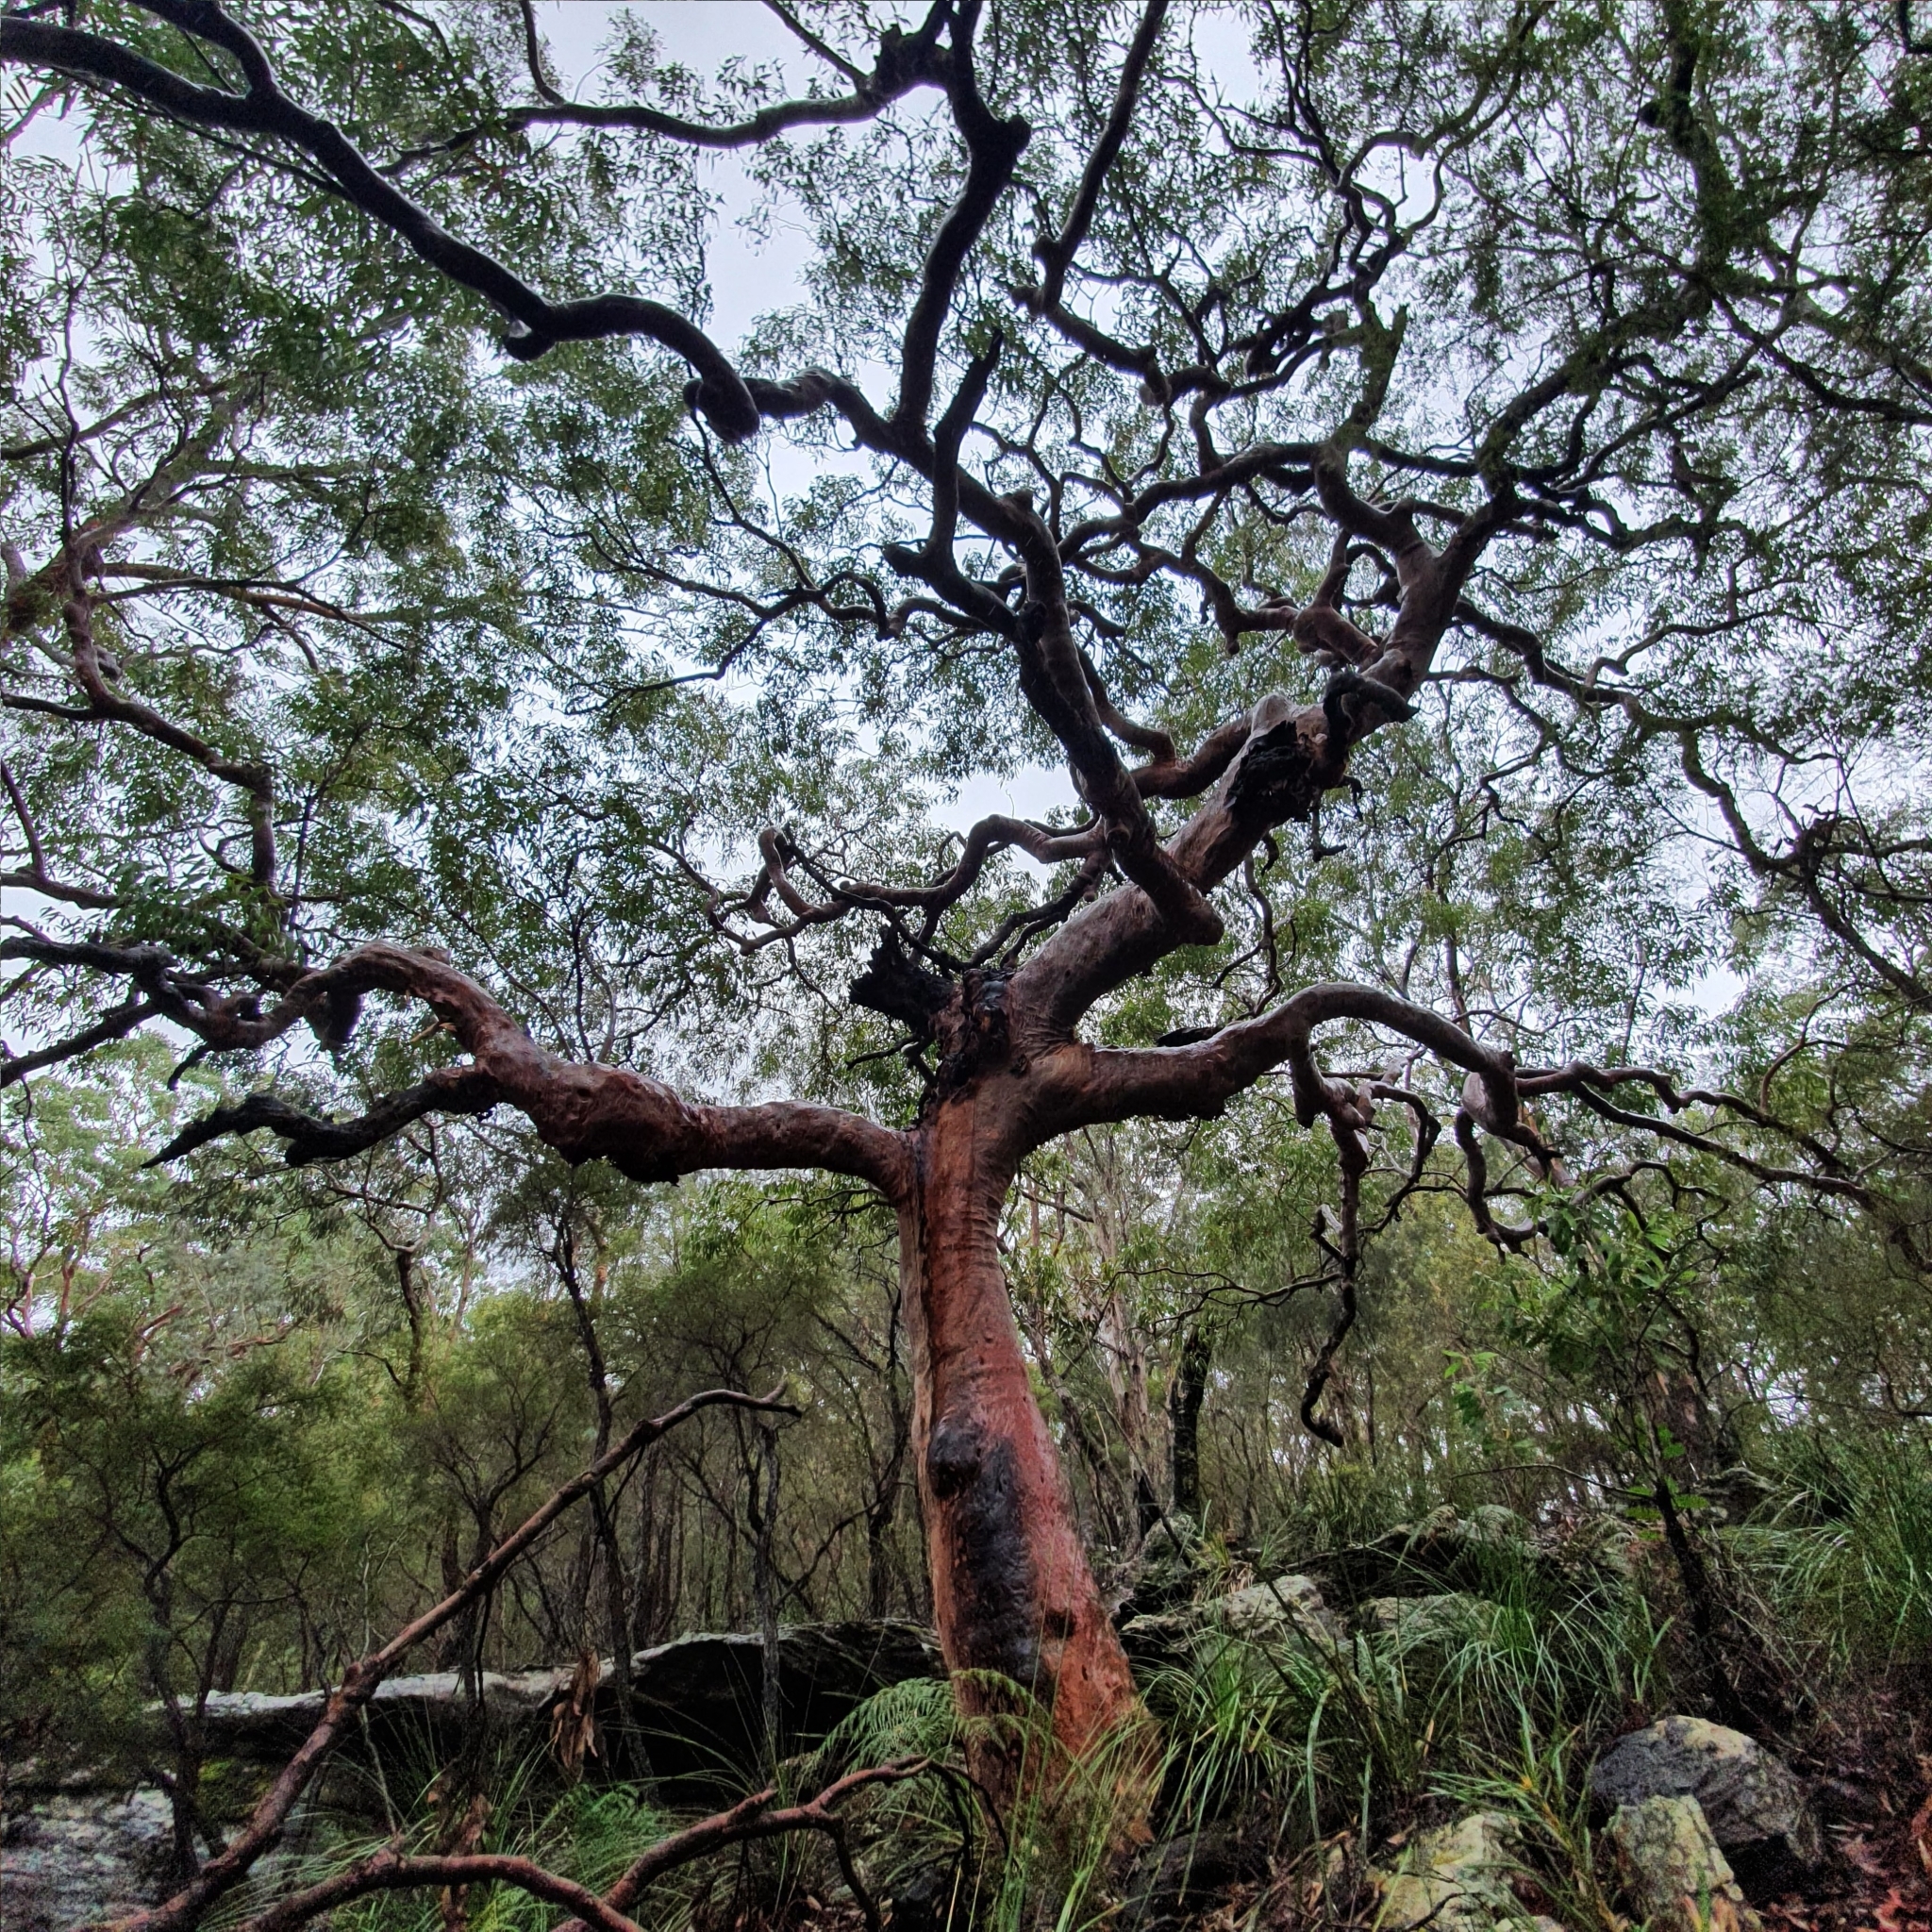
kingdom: Plantae
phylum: Tracheophyta
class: Magnoliopsida
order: Myrtales
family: Myrtaceae
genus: Angophora
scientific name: Angophora costata
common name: Gum myrtle
